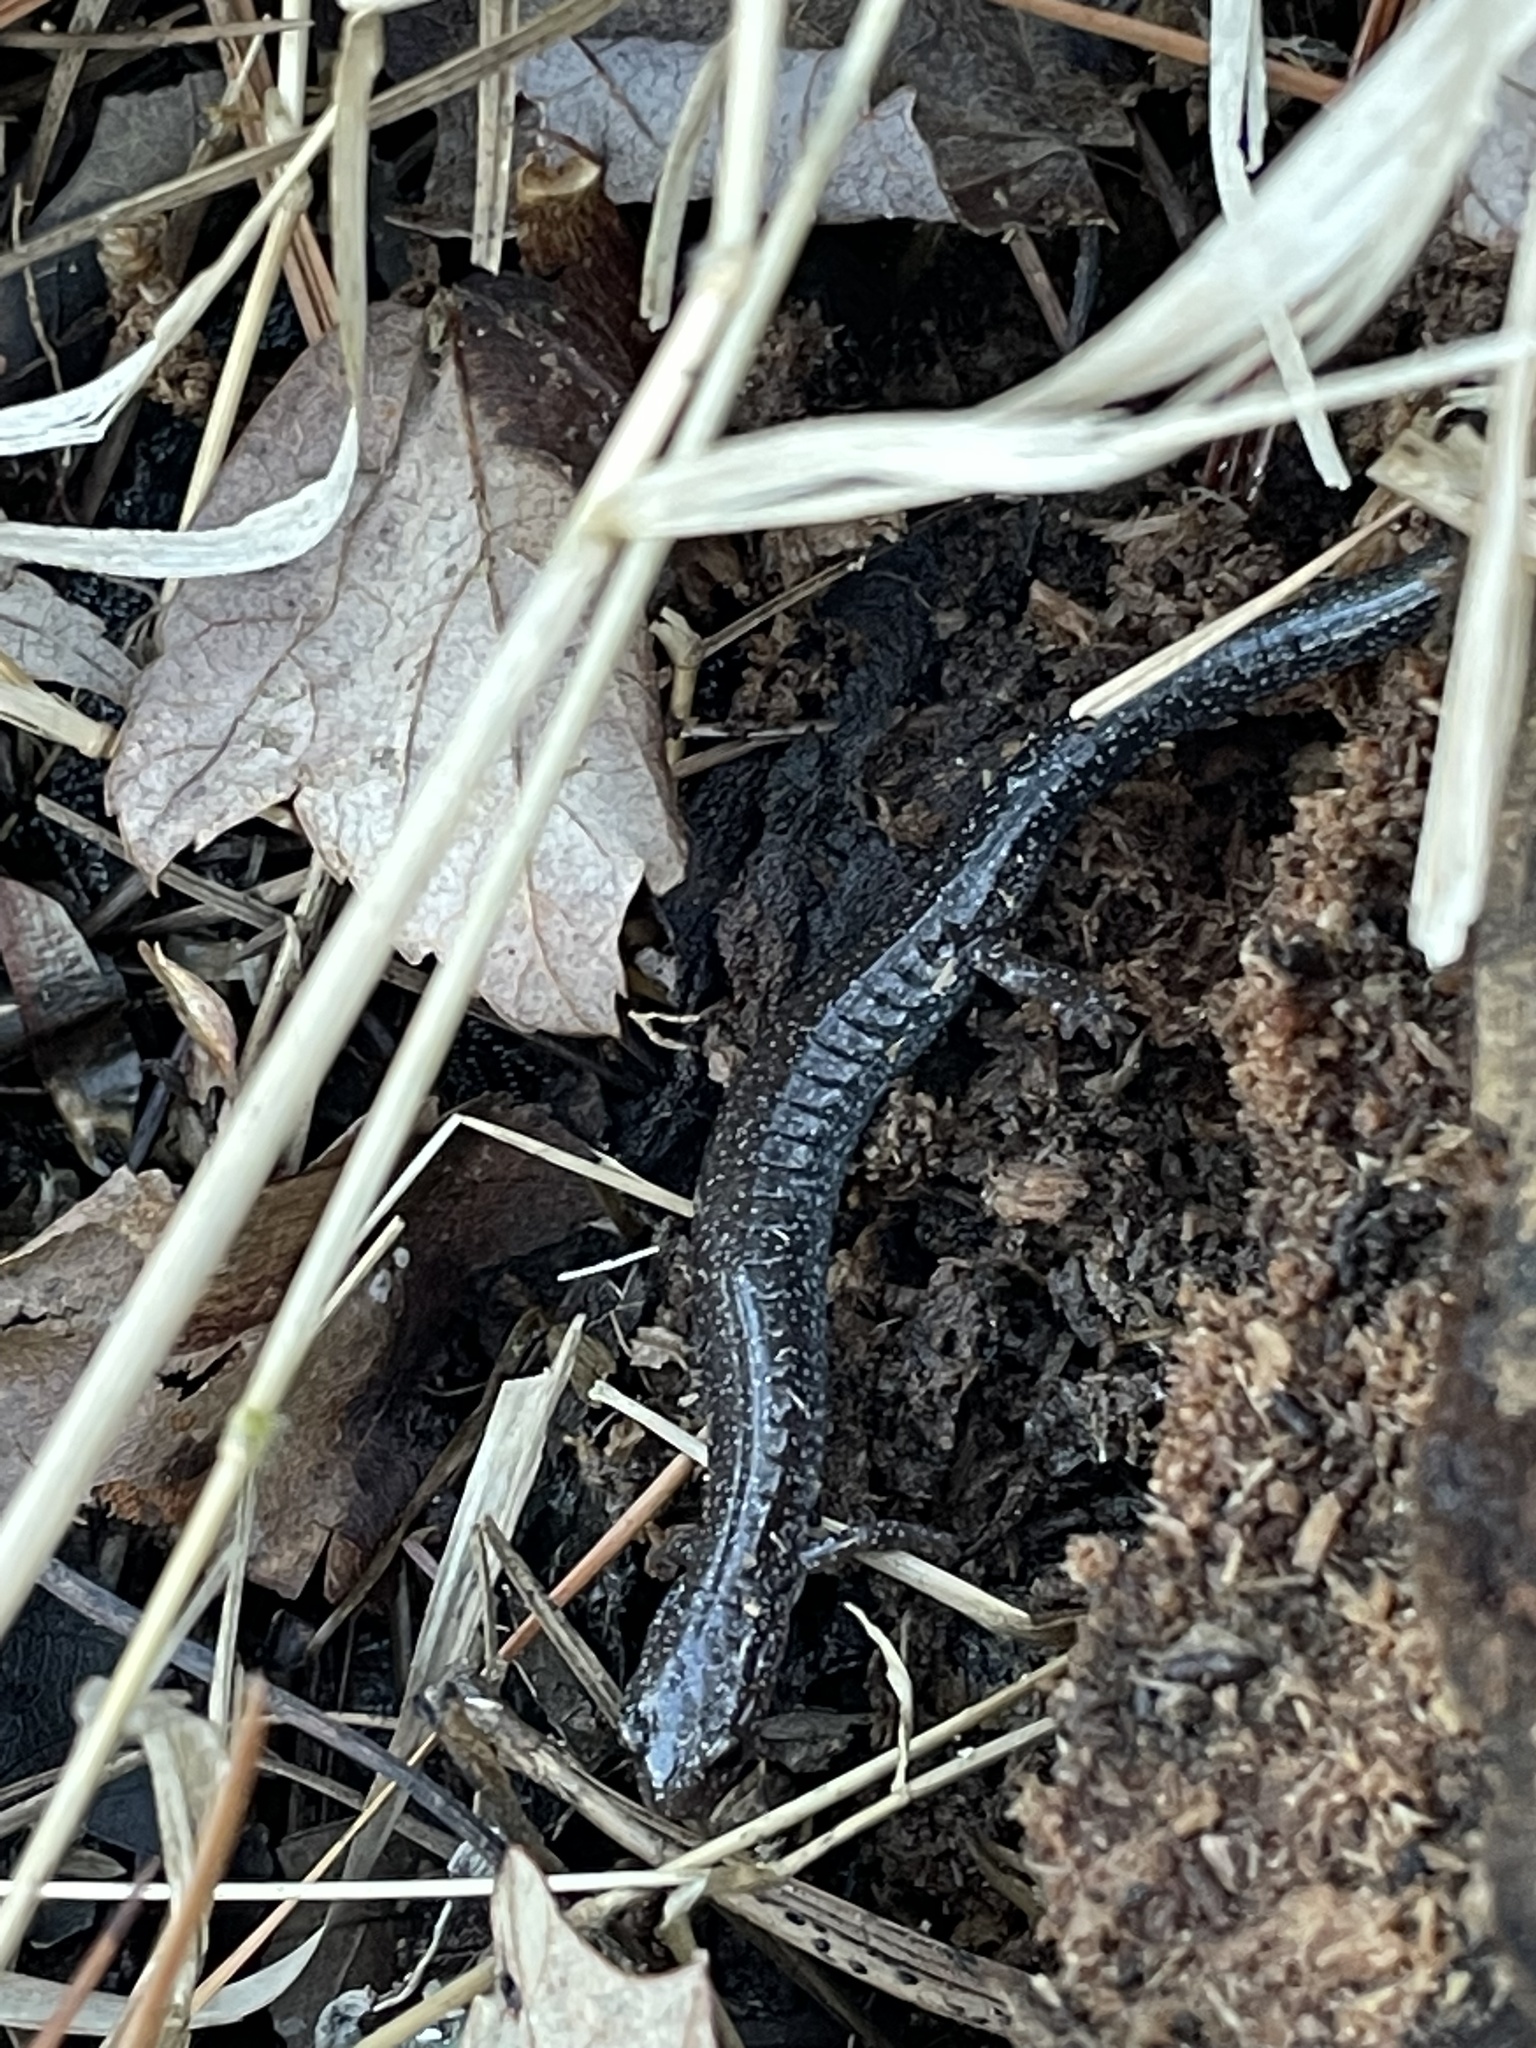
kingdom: Animalia
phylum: Chordata
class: Amphibia
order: Caudata
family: Plethodontidae
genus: Plethodon
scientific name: Plethodon cinereus
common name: Redback salamander
